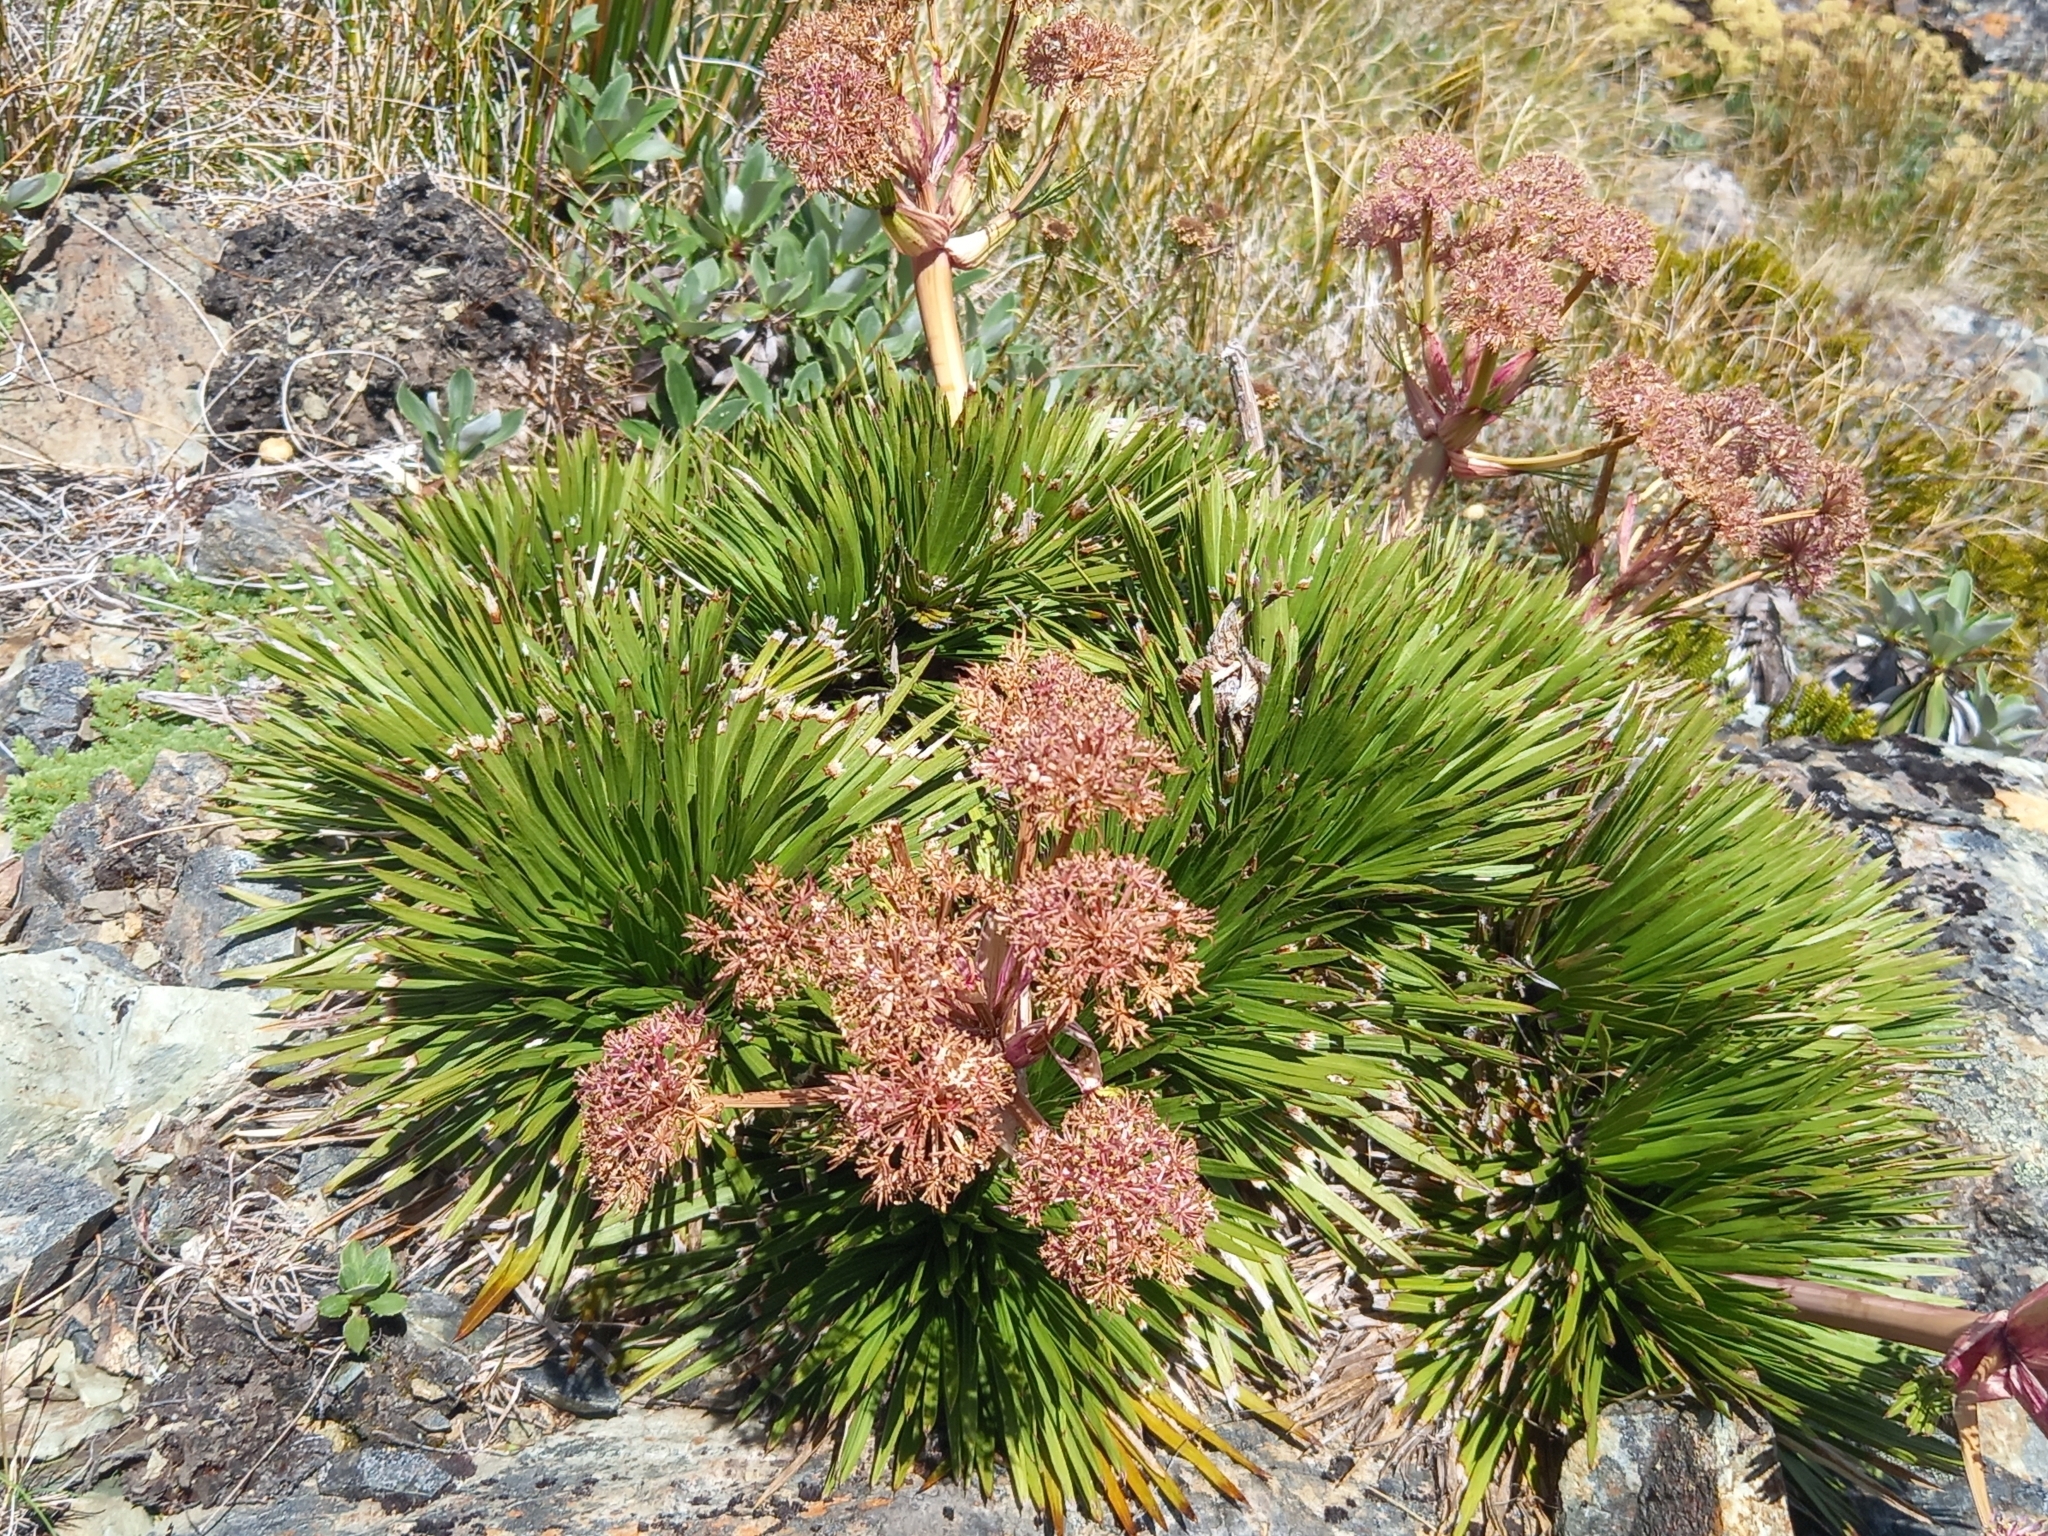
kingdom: Plantae
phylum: Tracheophyta
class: Magnoliopsida
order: Apiales
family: Apiaceae
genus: Aciphylla
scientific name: Aciphylla congesta
